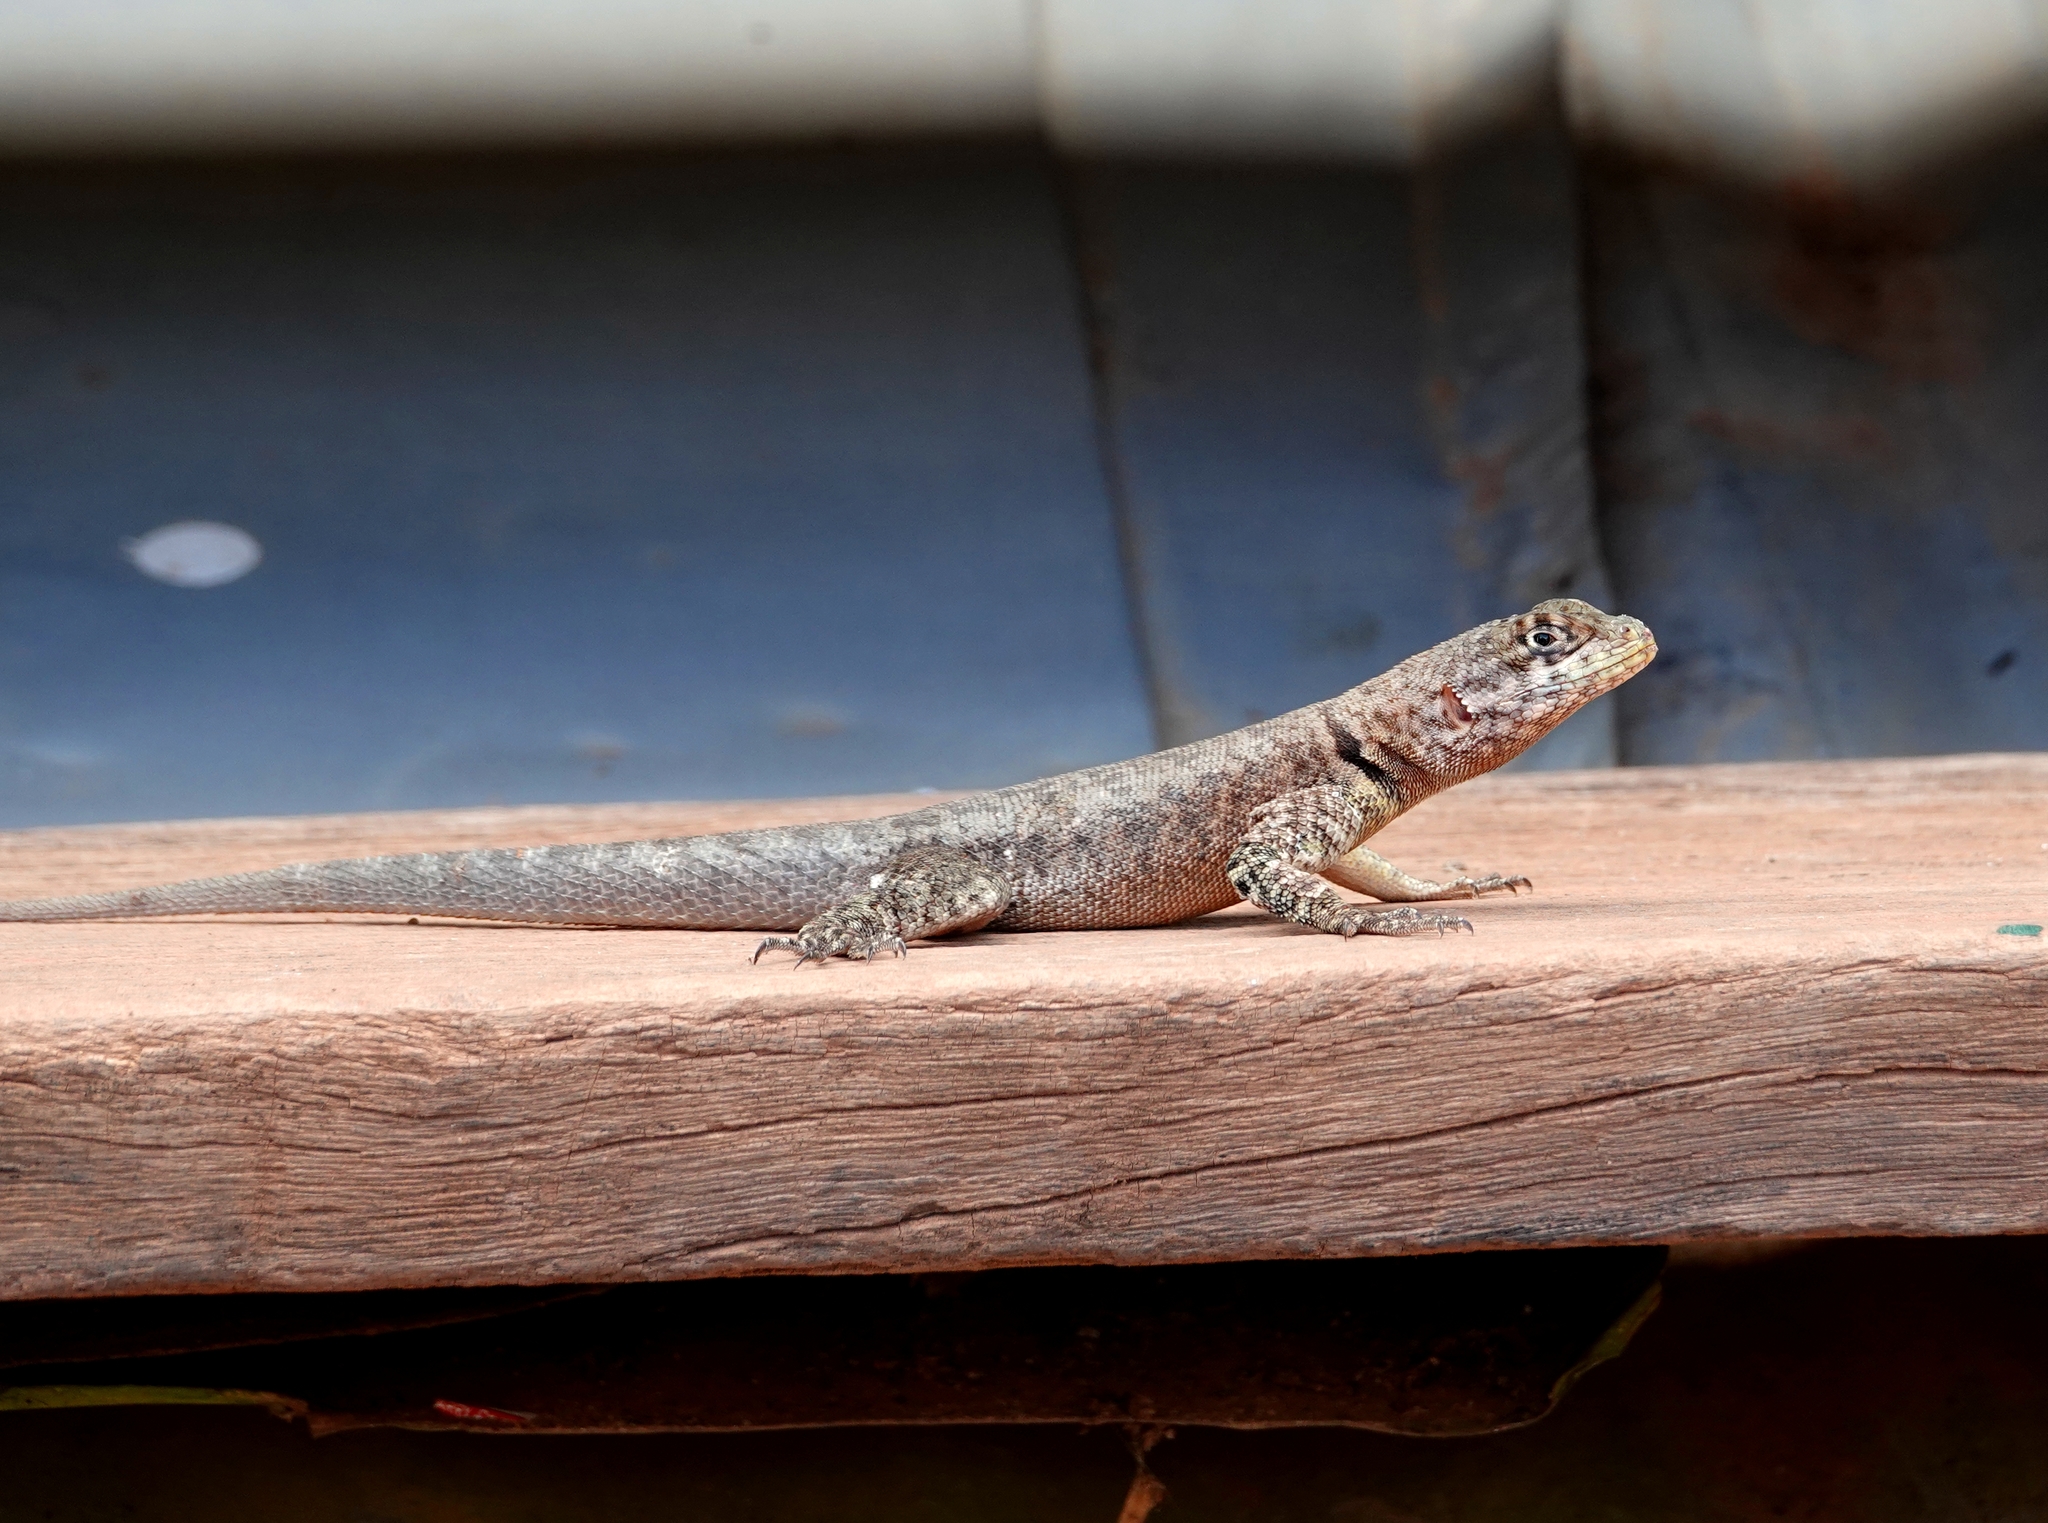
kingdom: Animalia
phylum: Chordata
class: Squamata
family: Tropiduridae
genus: Tropidurus
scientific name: Tropidurus hispidus
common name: Peters' lava lizard
